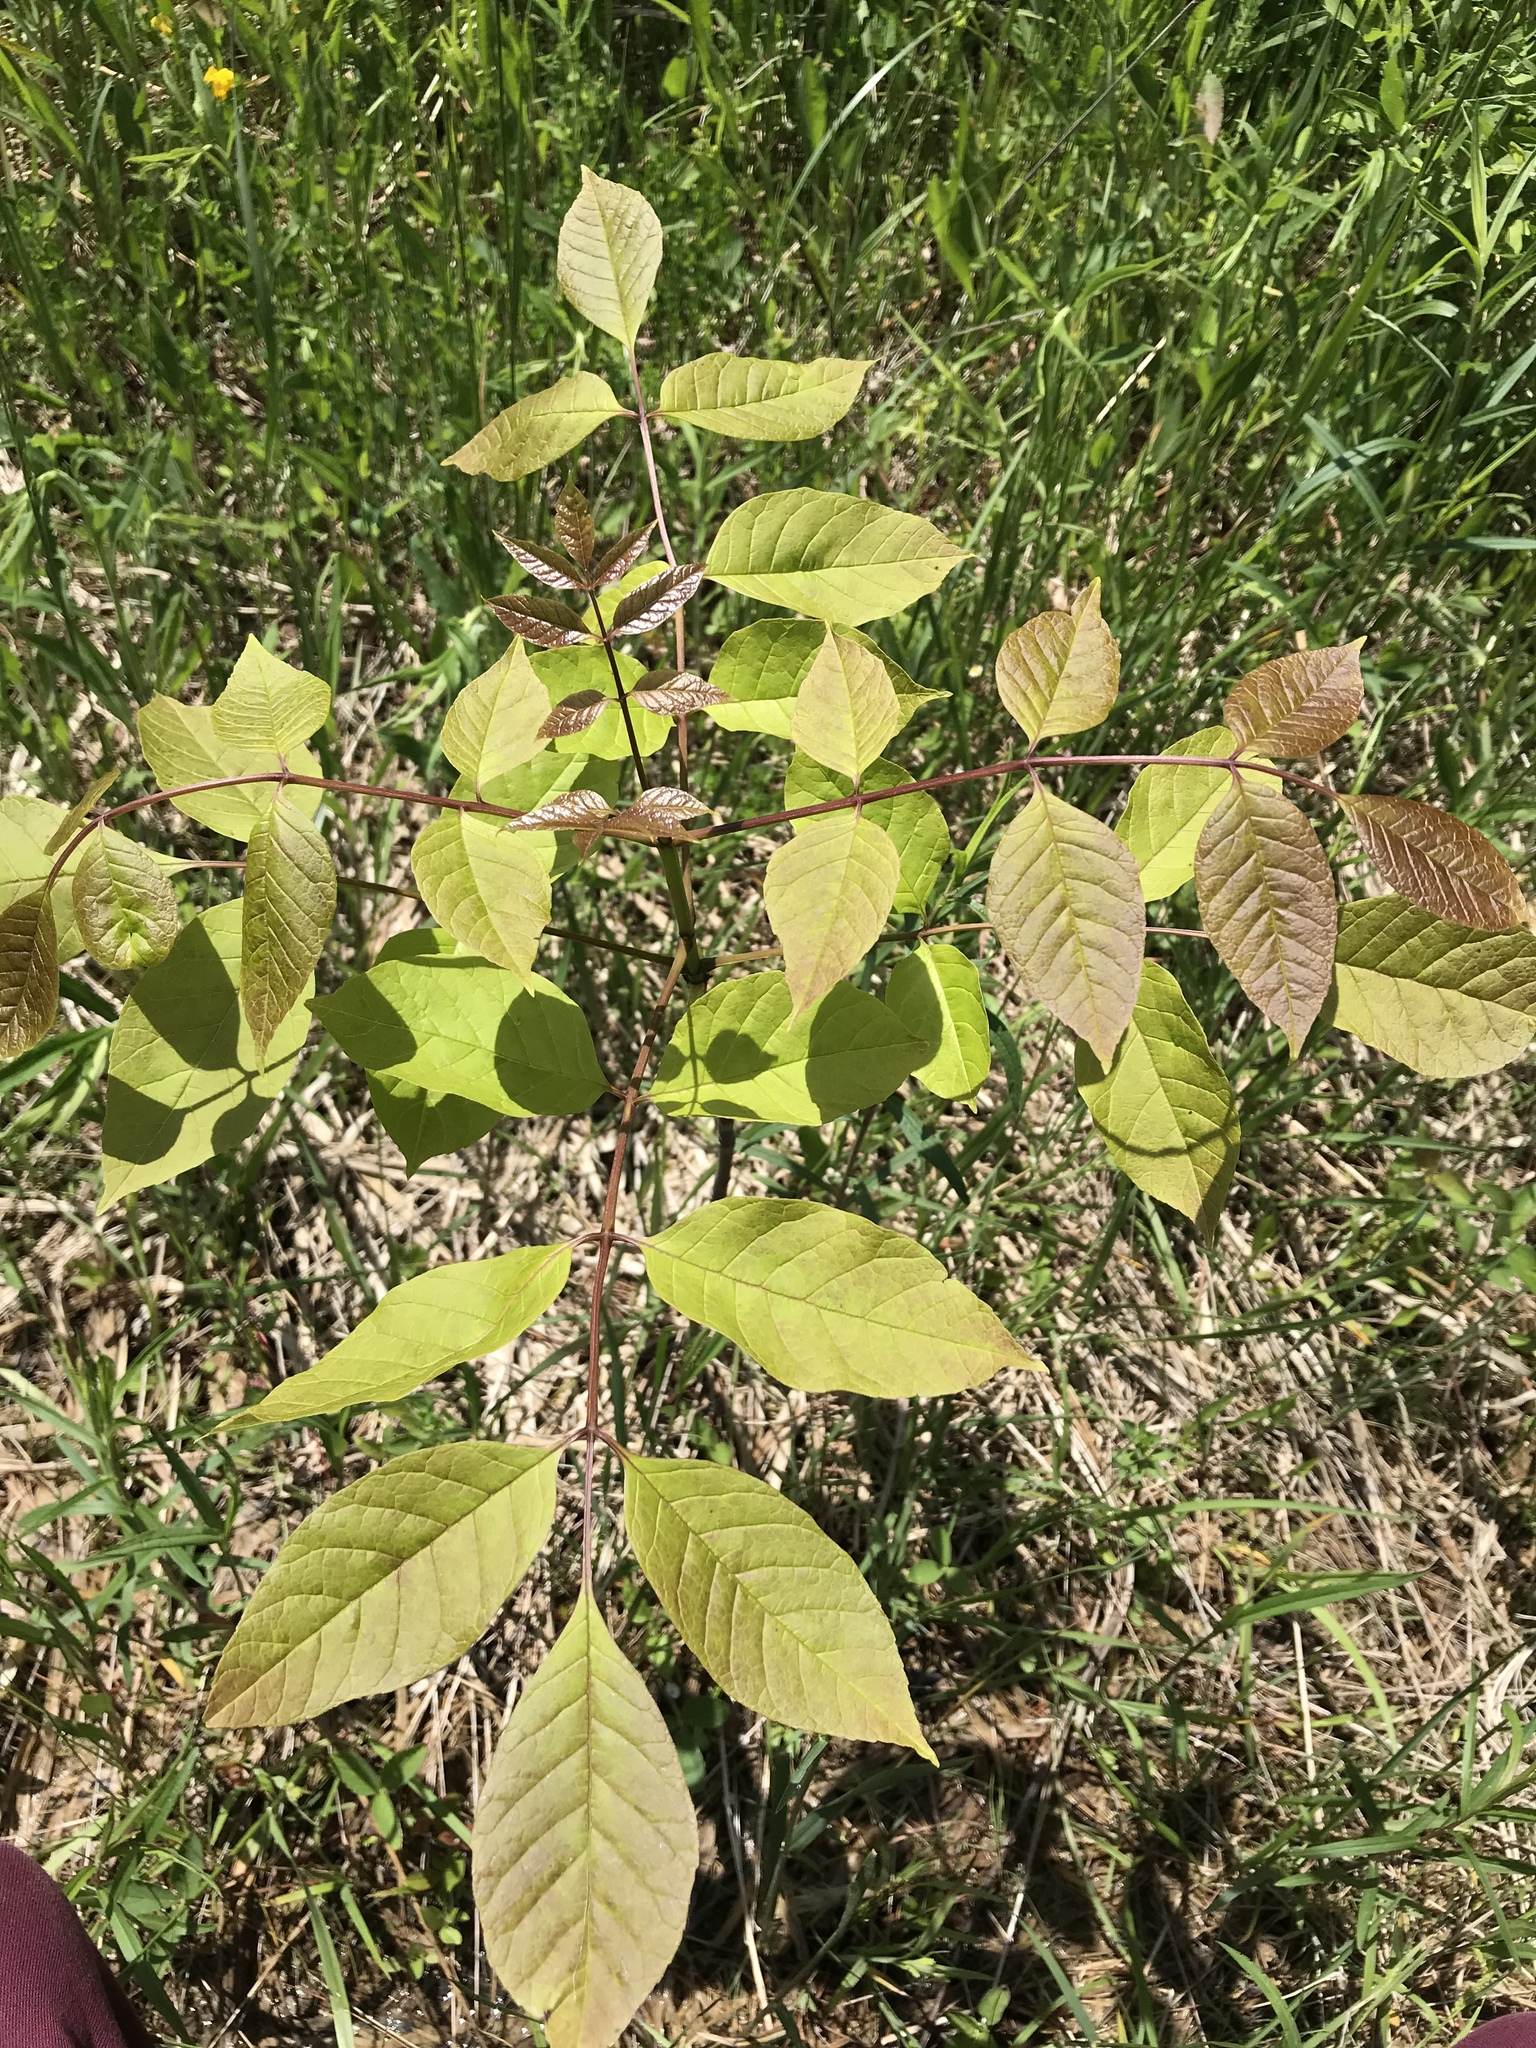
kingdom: Plantae
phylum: Tracheophyta
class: Magnoliopsida
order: Lamiales
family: Oleaceae
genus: Fraxinus
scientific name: Fraxinus americana
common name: White ash
